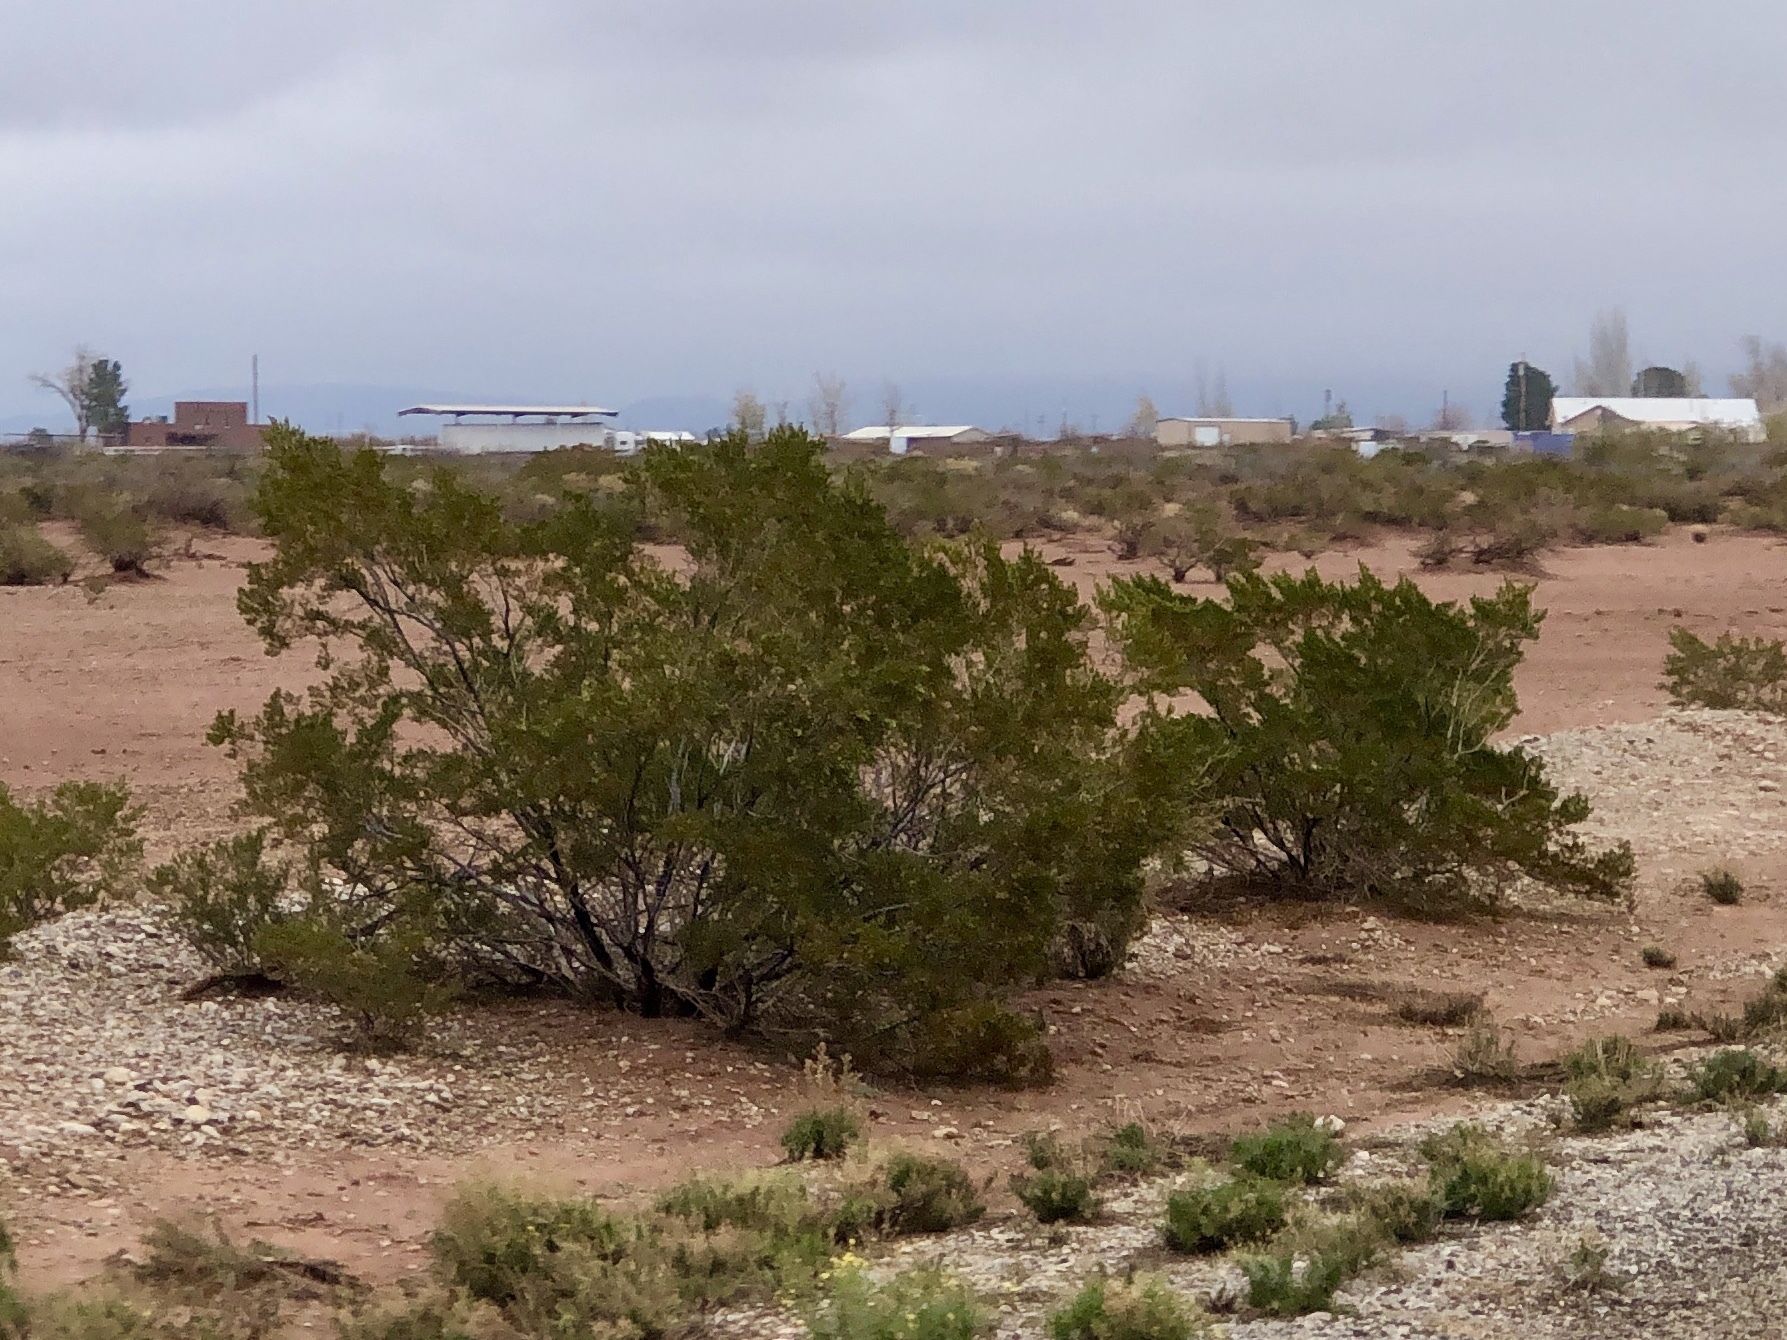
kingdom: Plantae
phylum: Tracheophyta
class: Magnoliopsida
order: Zygophyllales
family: Zygophyllaceae
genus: Larrea
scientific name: Larrea tridentata
